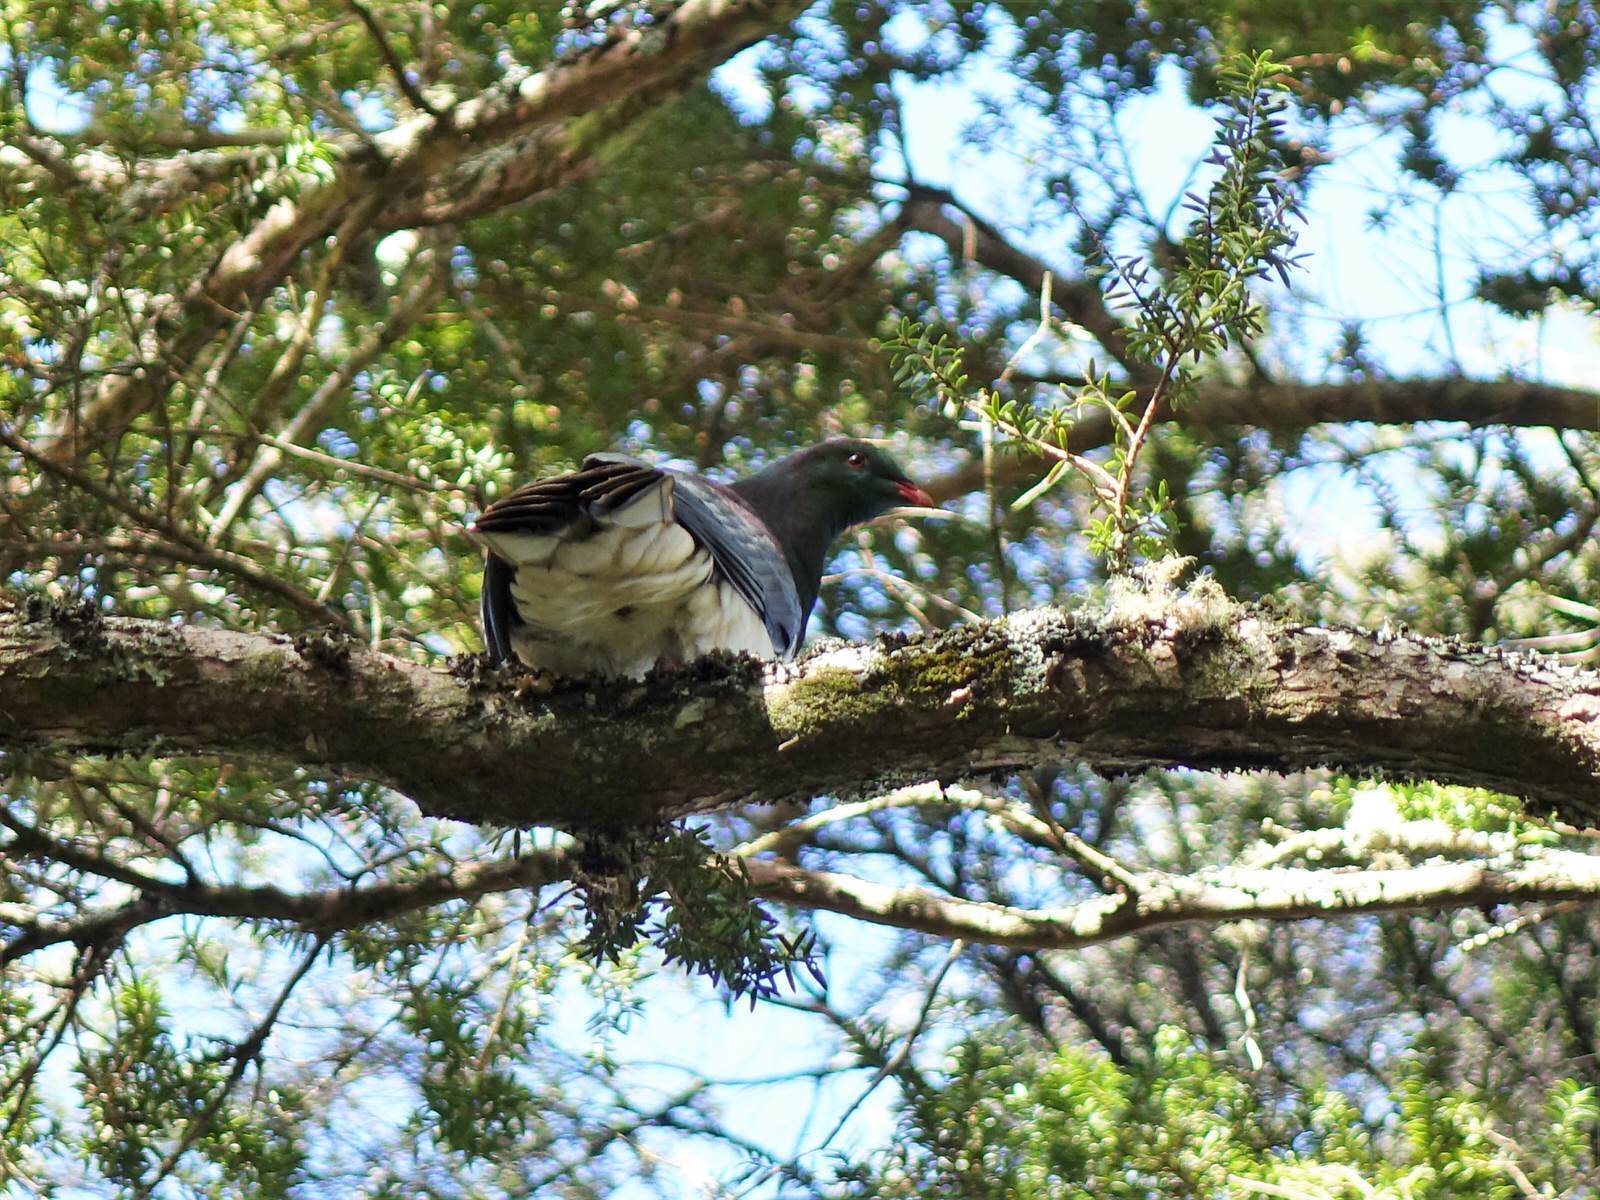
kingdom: Animalia
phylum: Chordata
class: Aves
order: Columbiformes
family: Columbidae
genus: Hemiphaga
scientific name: Hemiphaga novaeseelandiae
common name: New zealand pigeon
